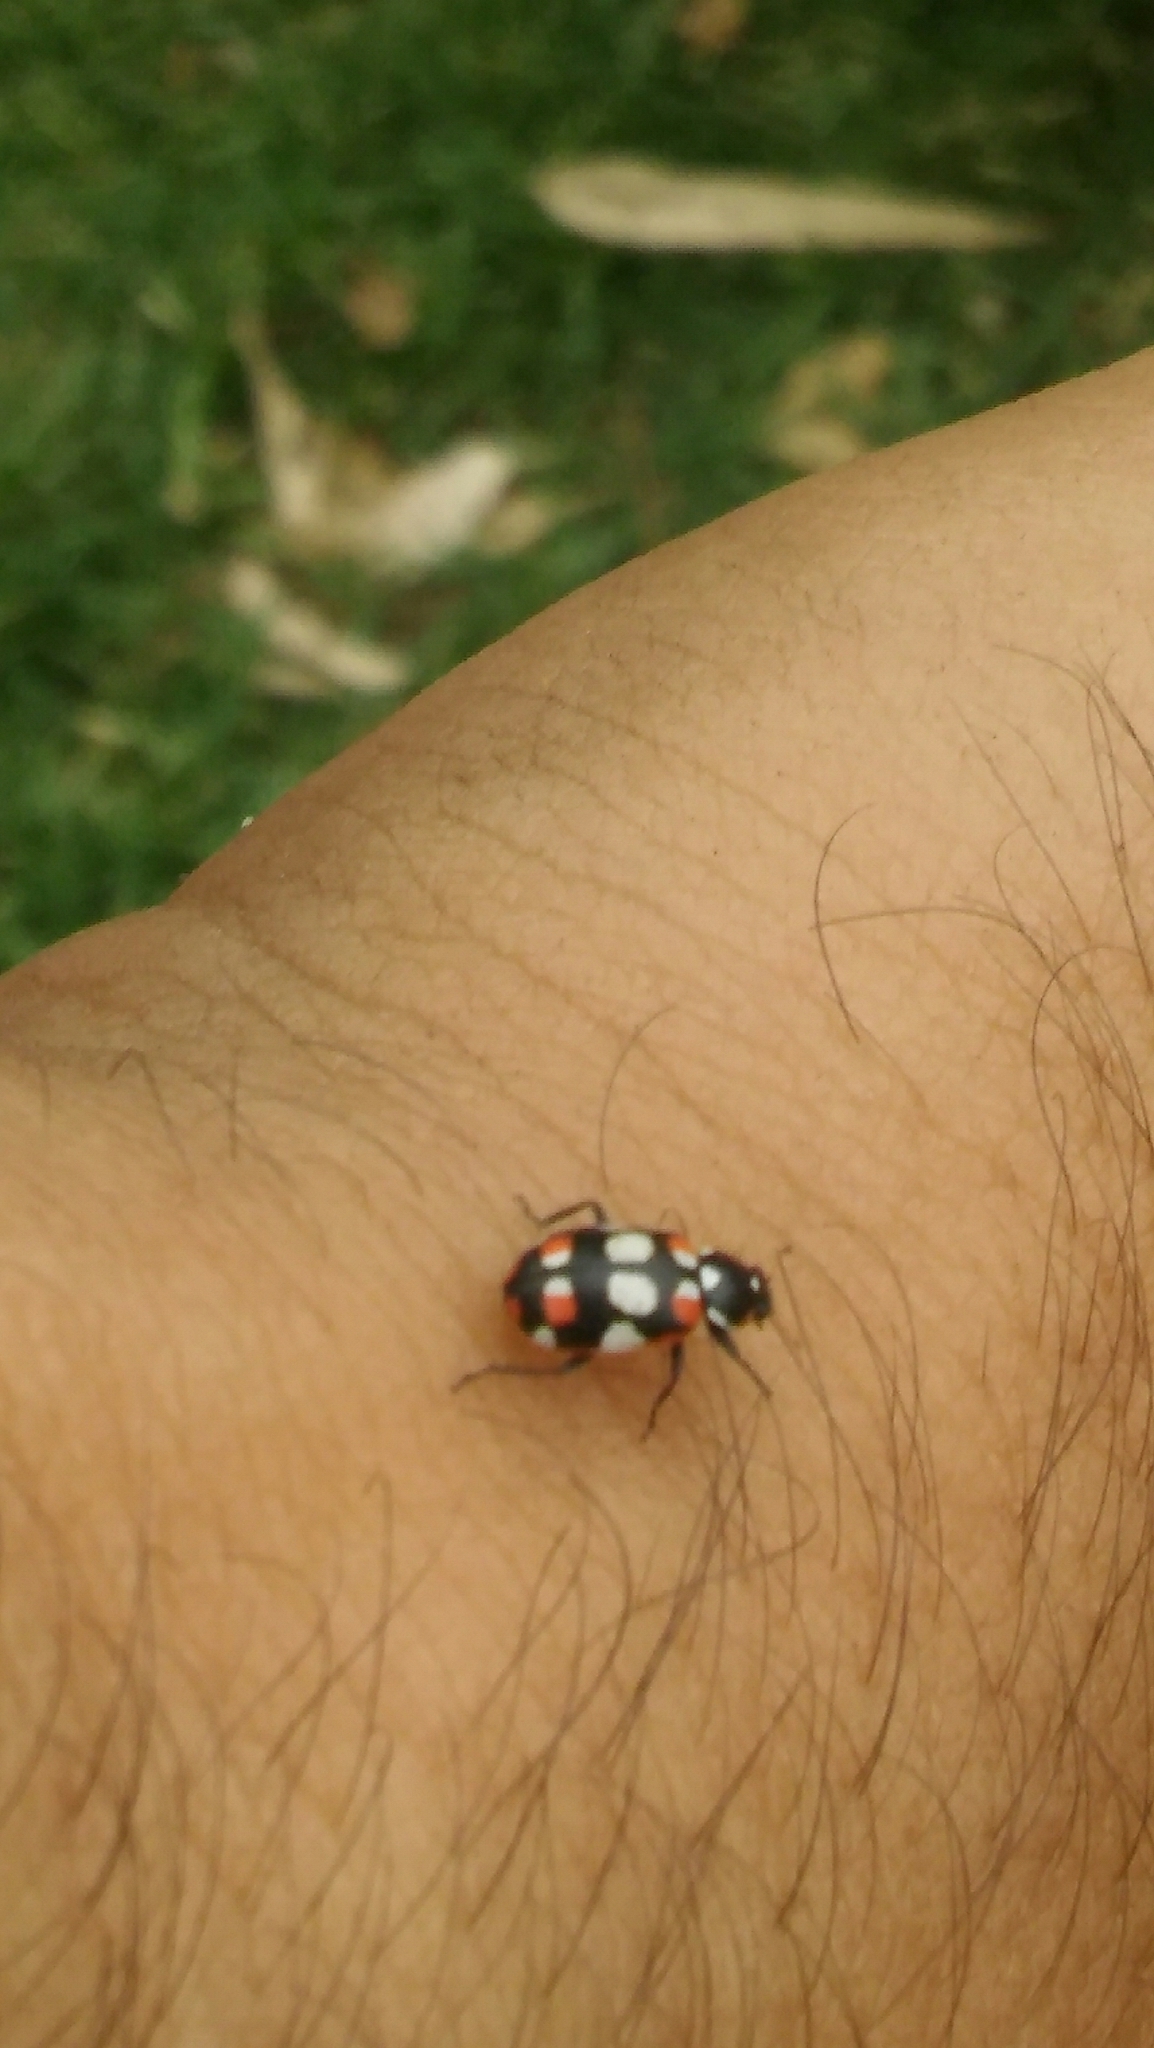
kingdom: Animalia
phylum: Arthropoda
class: Insecta
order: Coleoptera
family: Coccinellidae
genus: Eriopis
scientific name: Eriopis connexa
